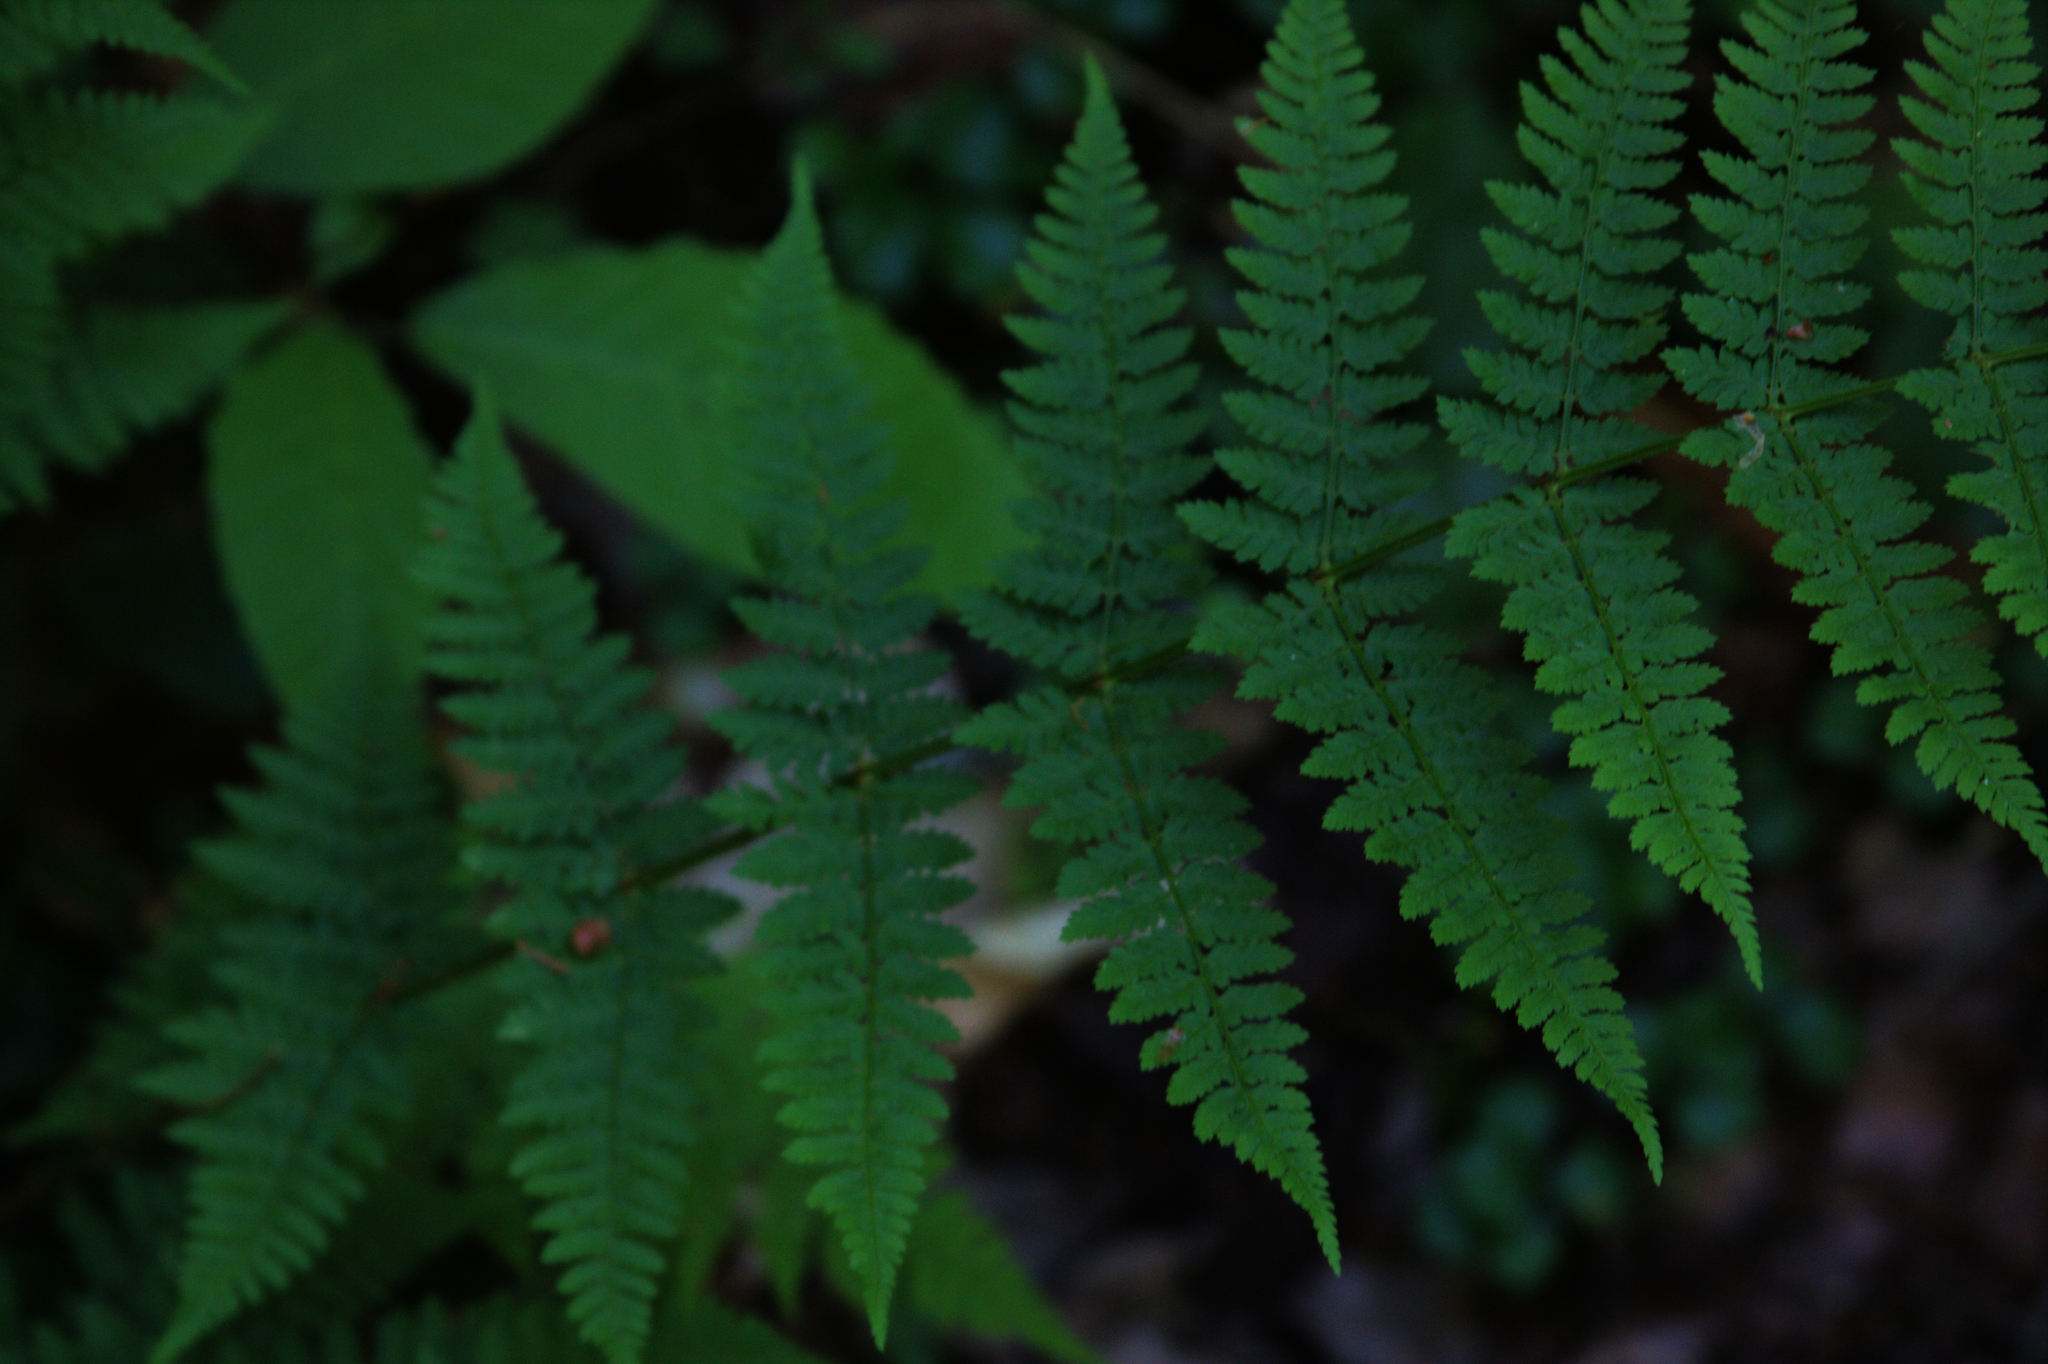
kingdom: Plantae
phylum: Tracheophyta
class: Polypodiopsida
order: Polypodiales
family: Dryopteridaceae
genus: Dryopteris
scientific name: Dryopteris intermedia
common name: Evergreen wood fern
